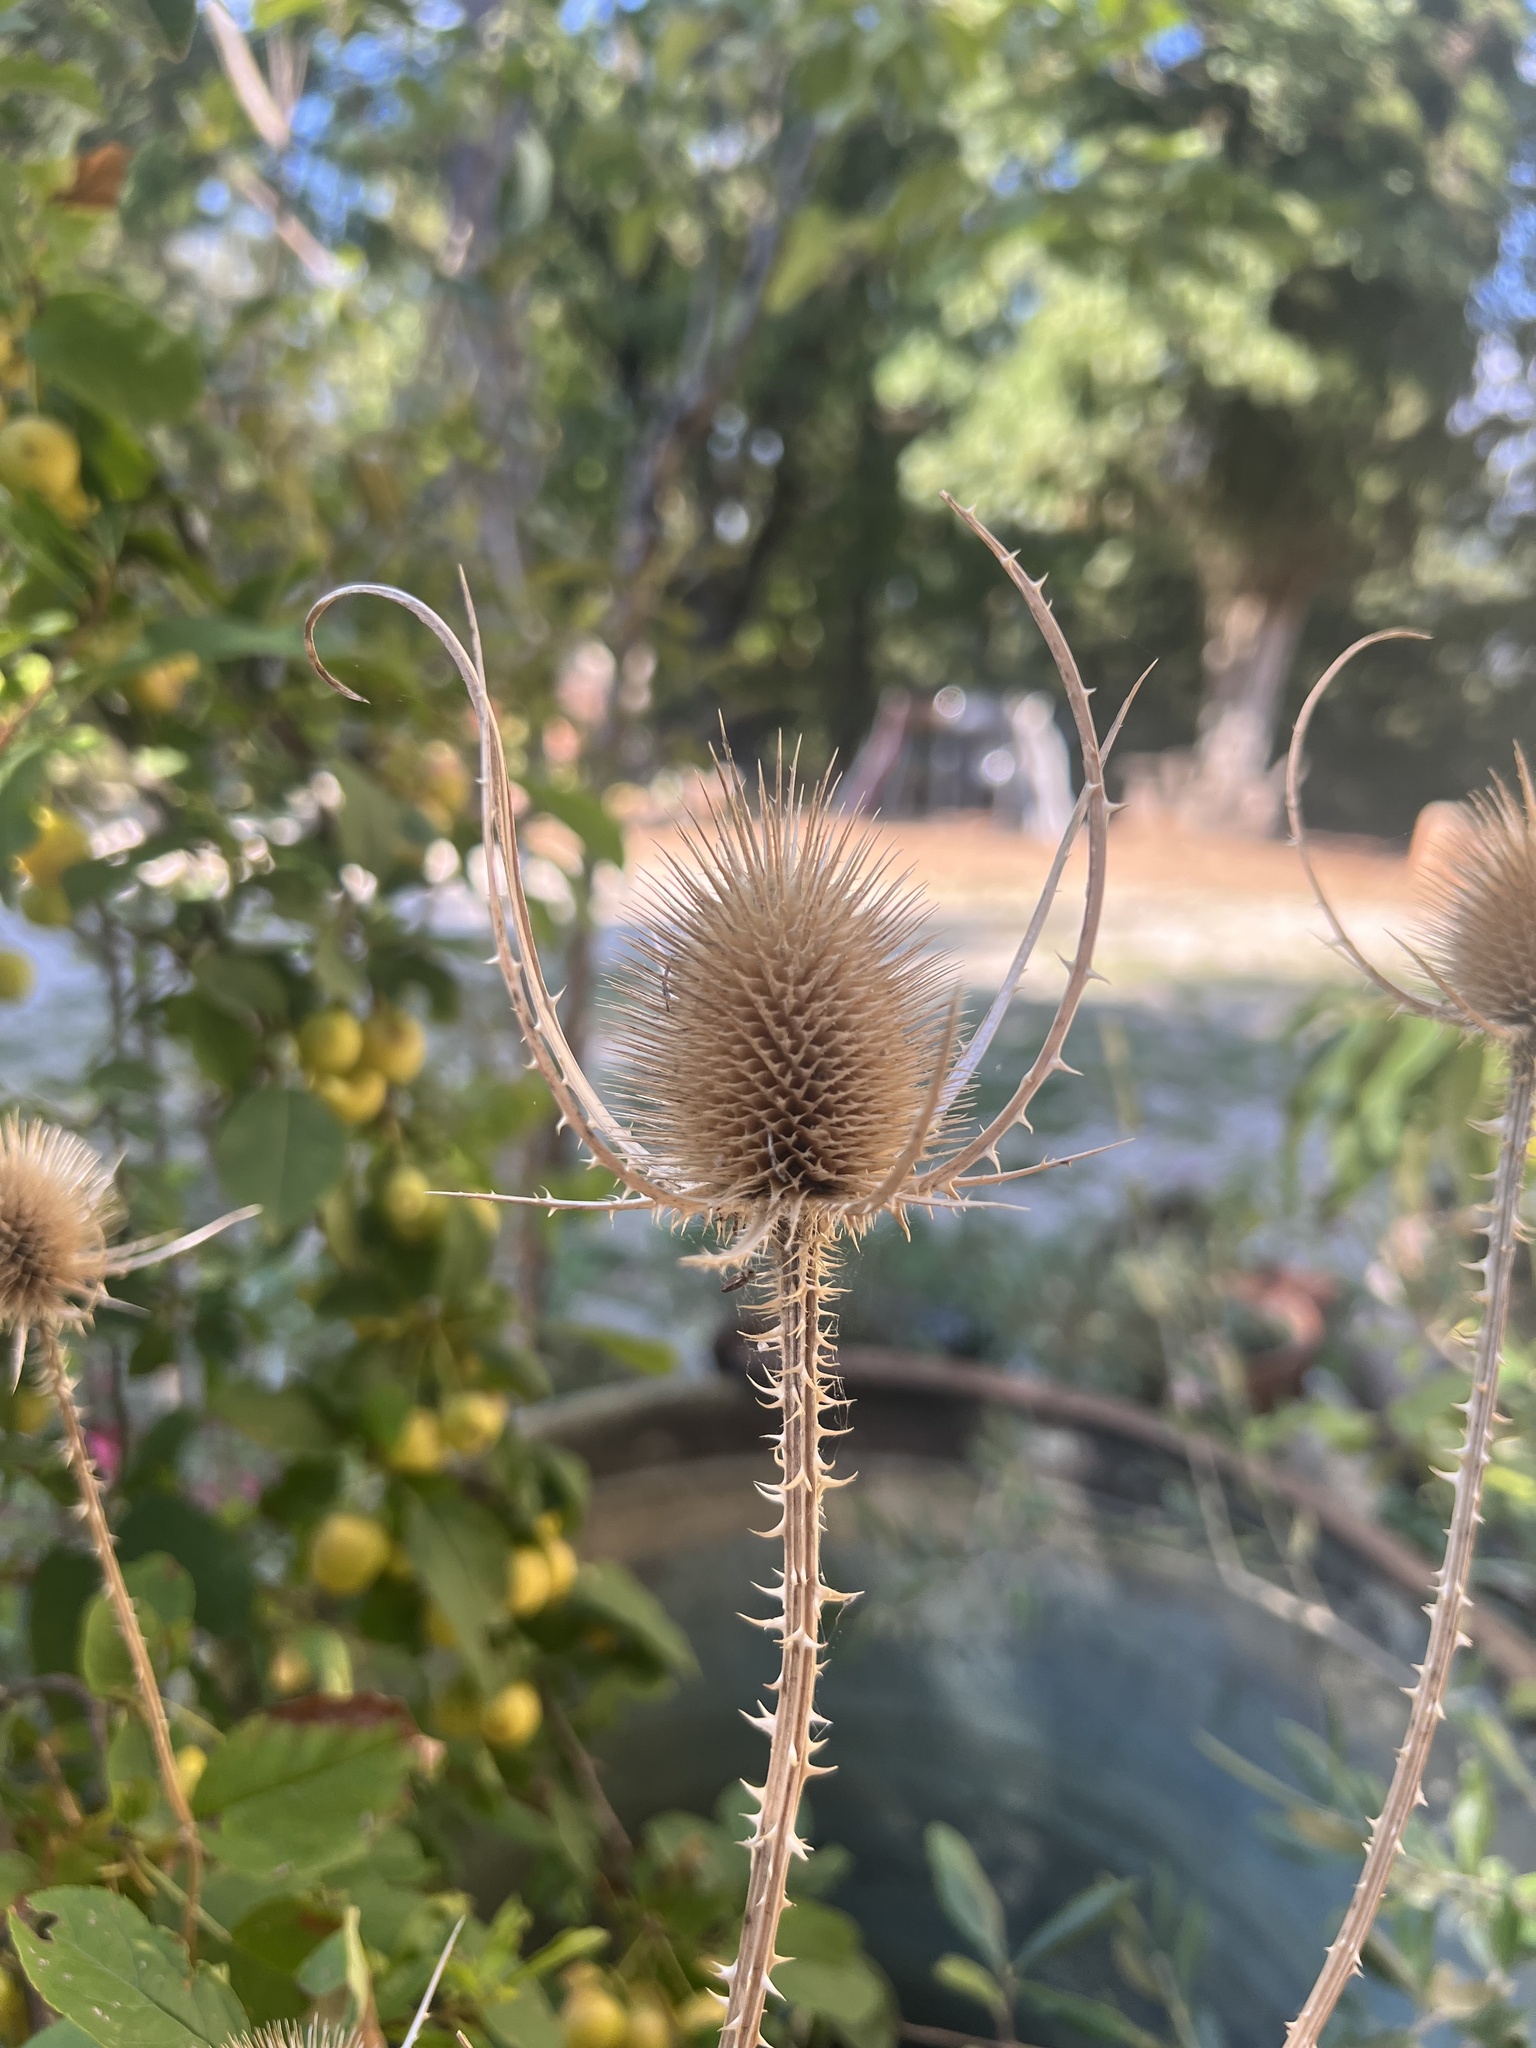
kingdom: Plantae
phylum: Tracheophyta
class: Magnoliopsida
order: Dipsacales
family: Caprifoliaceae
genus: Dipsacus
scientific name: Dipsacus fullonum
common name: Teasel
